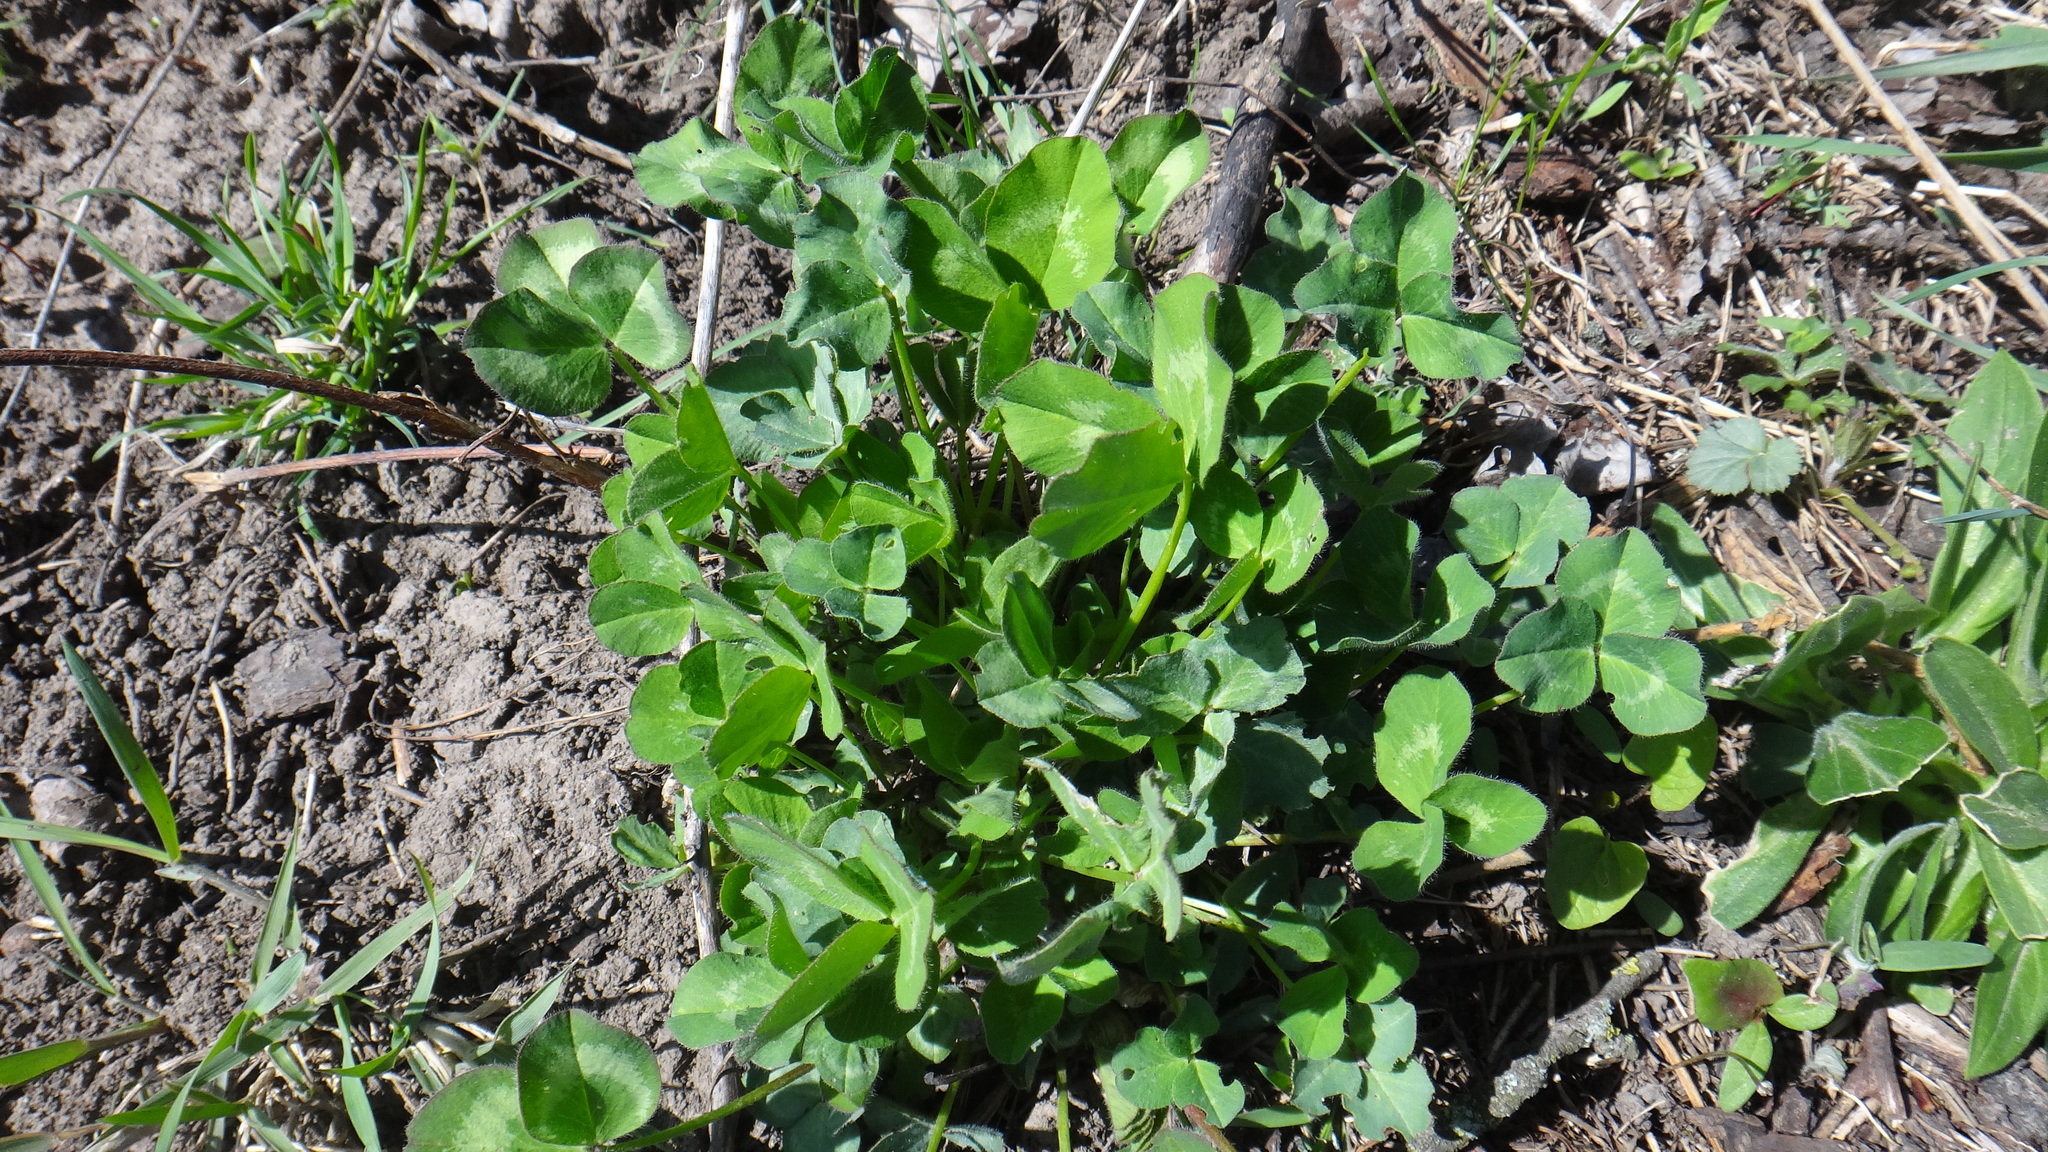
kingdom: Plantae
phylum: Tracheophyta
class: Magnoliopsida
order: Fabales
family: Fabaceae
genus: Trifolium
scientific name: Trifolium pratense
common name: Red clover
